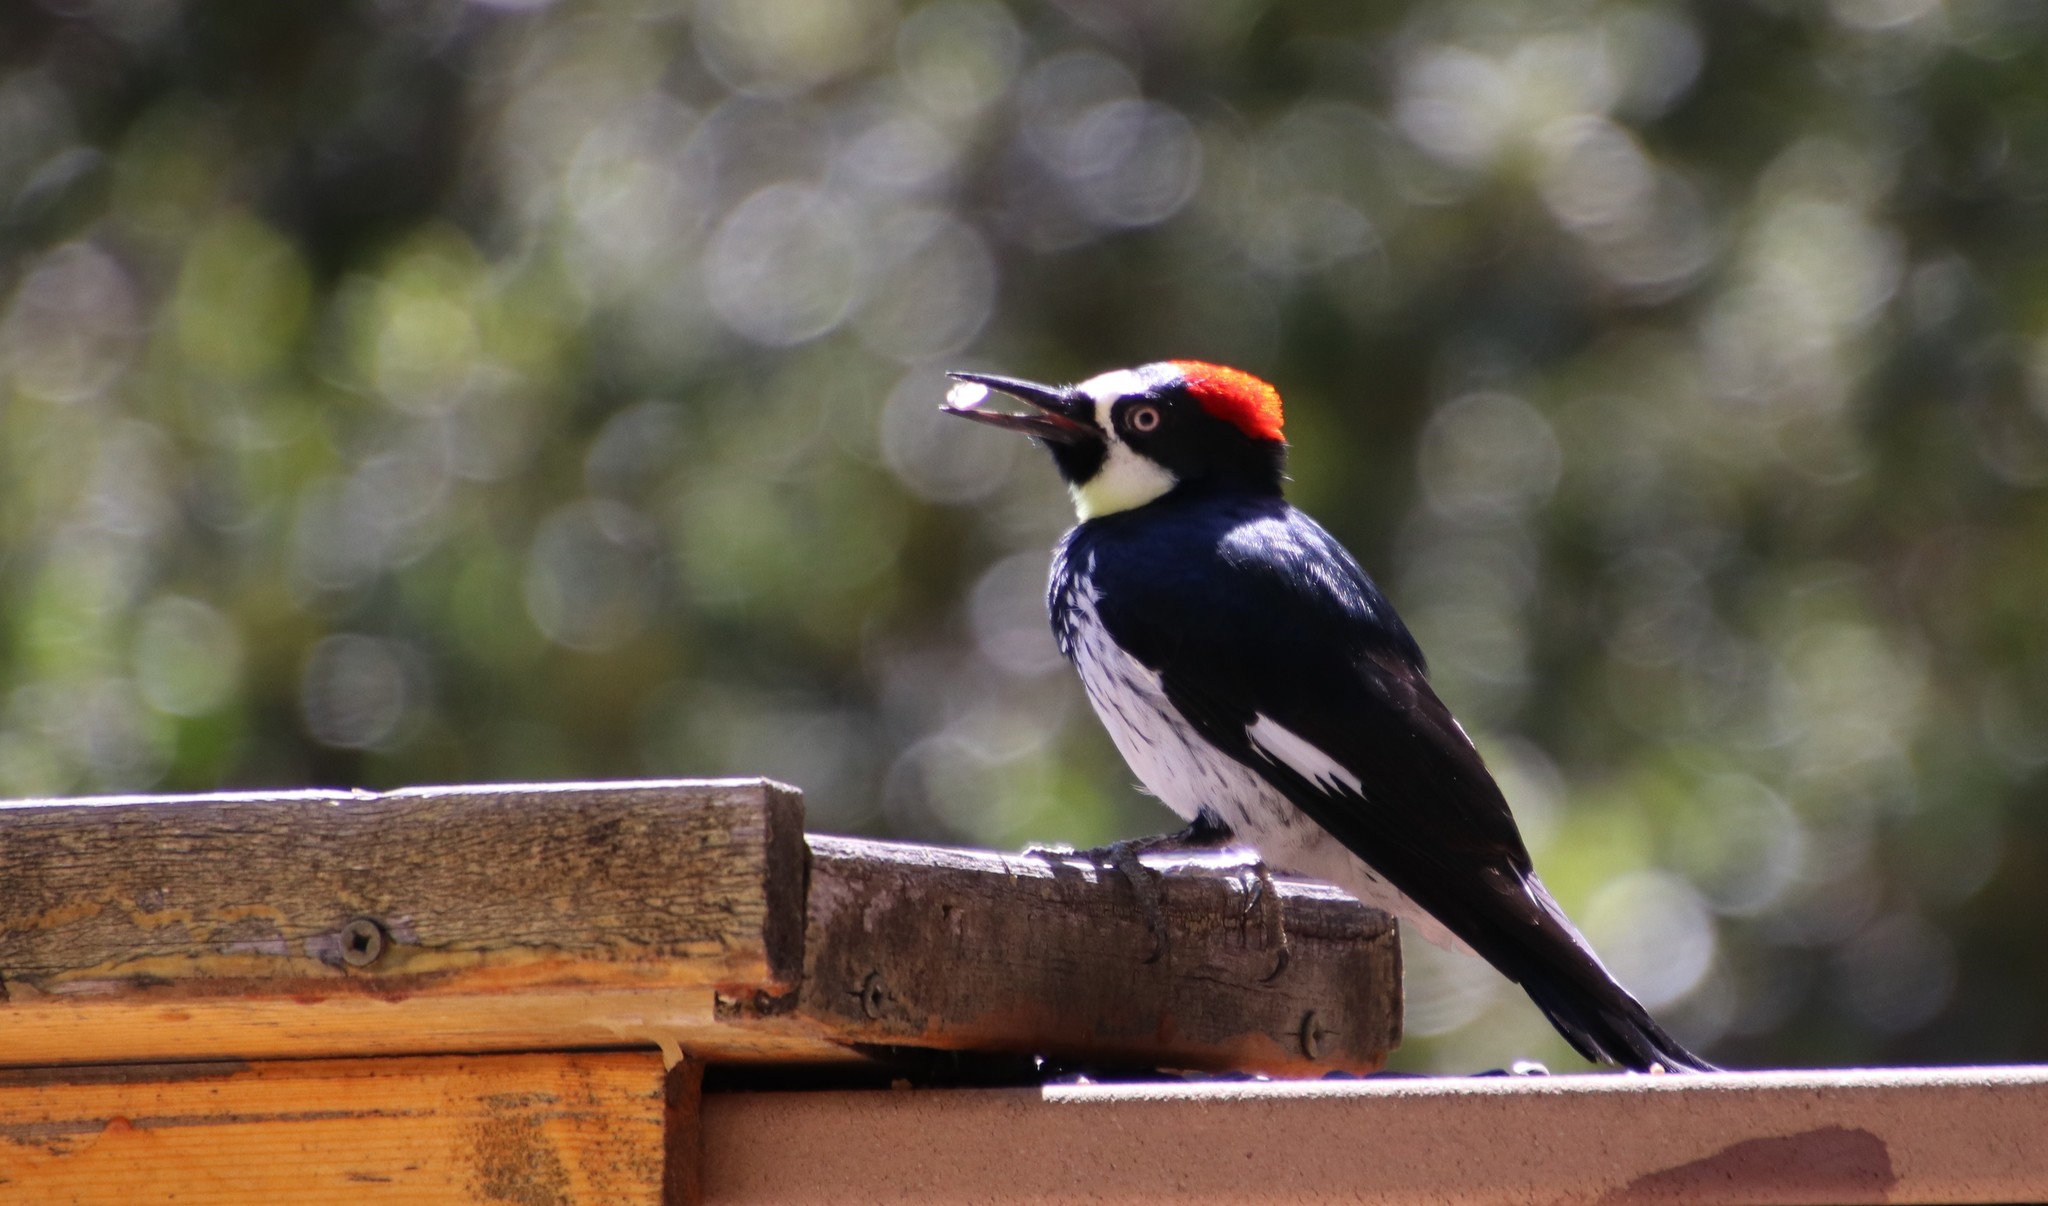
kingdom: Animalia
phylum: Chordata
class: Aves
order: Piciformes
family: Picidae
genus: Melanerpes
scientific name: Melanerpes formicivorus
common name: Acorn woodpecker
